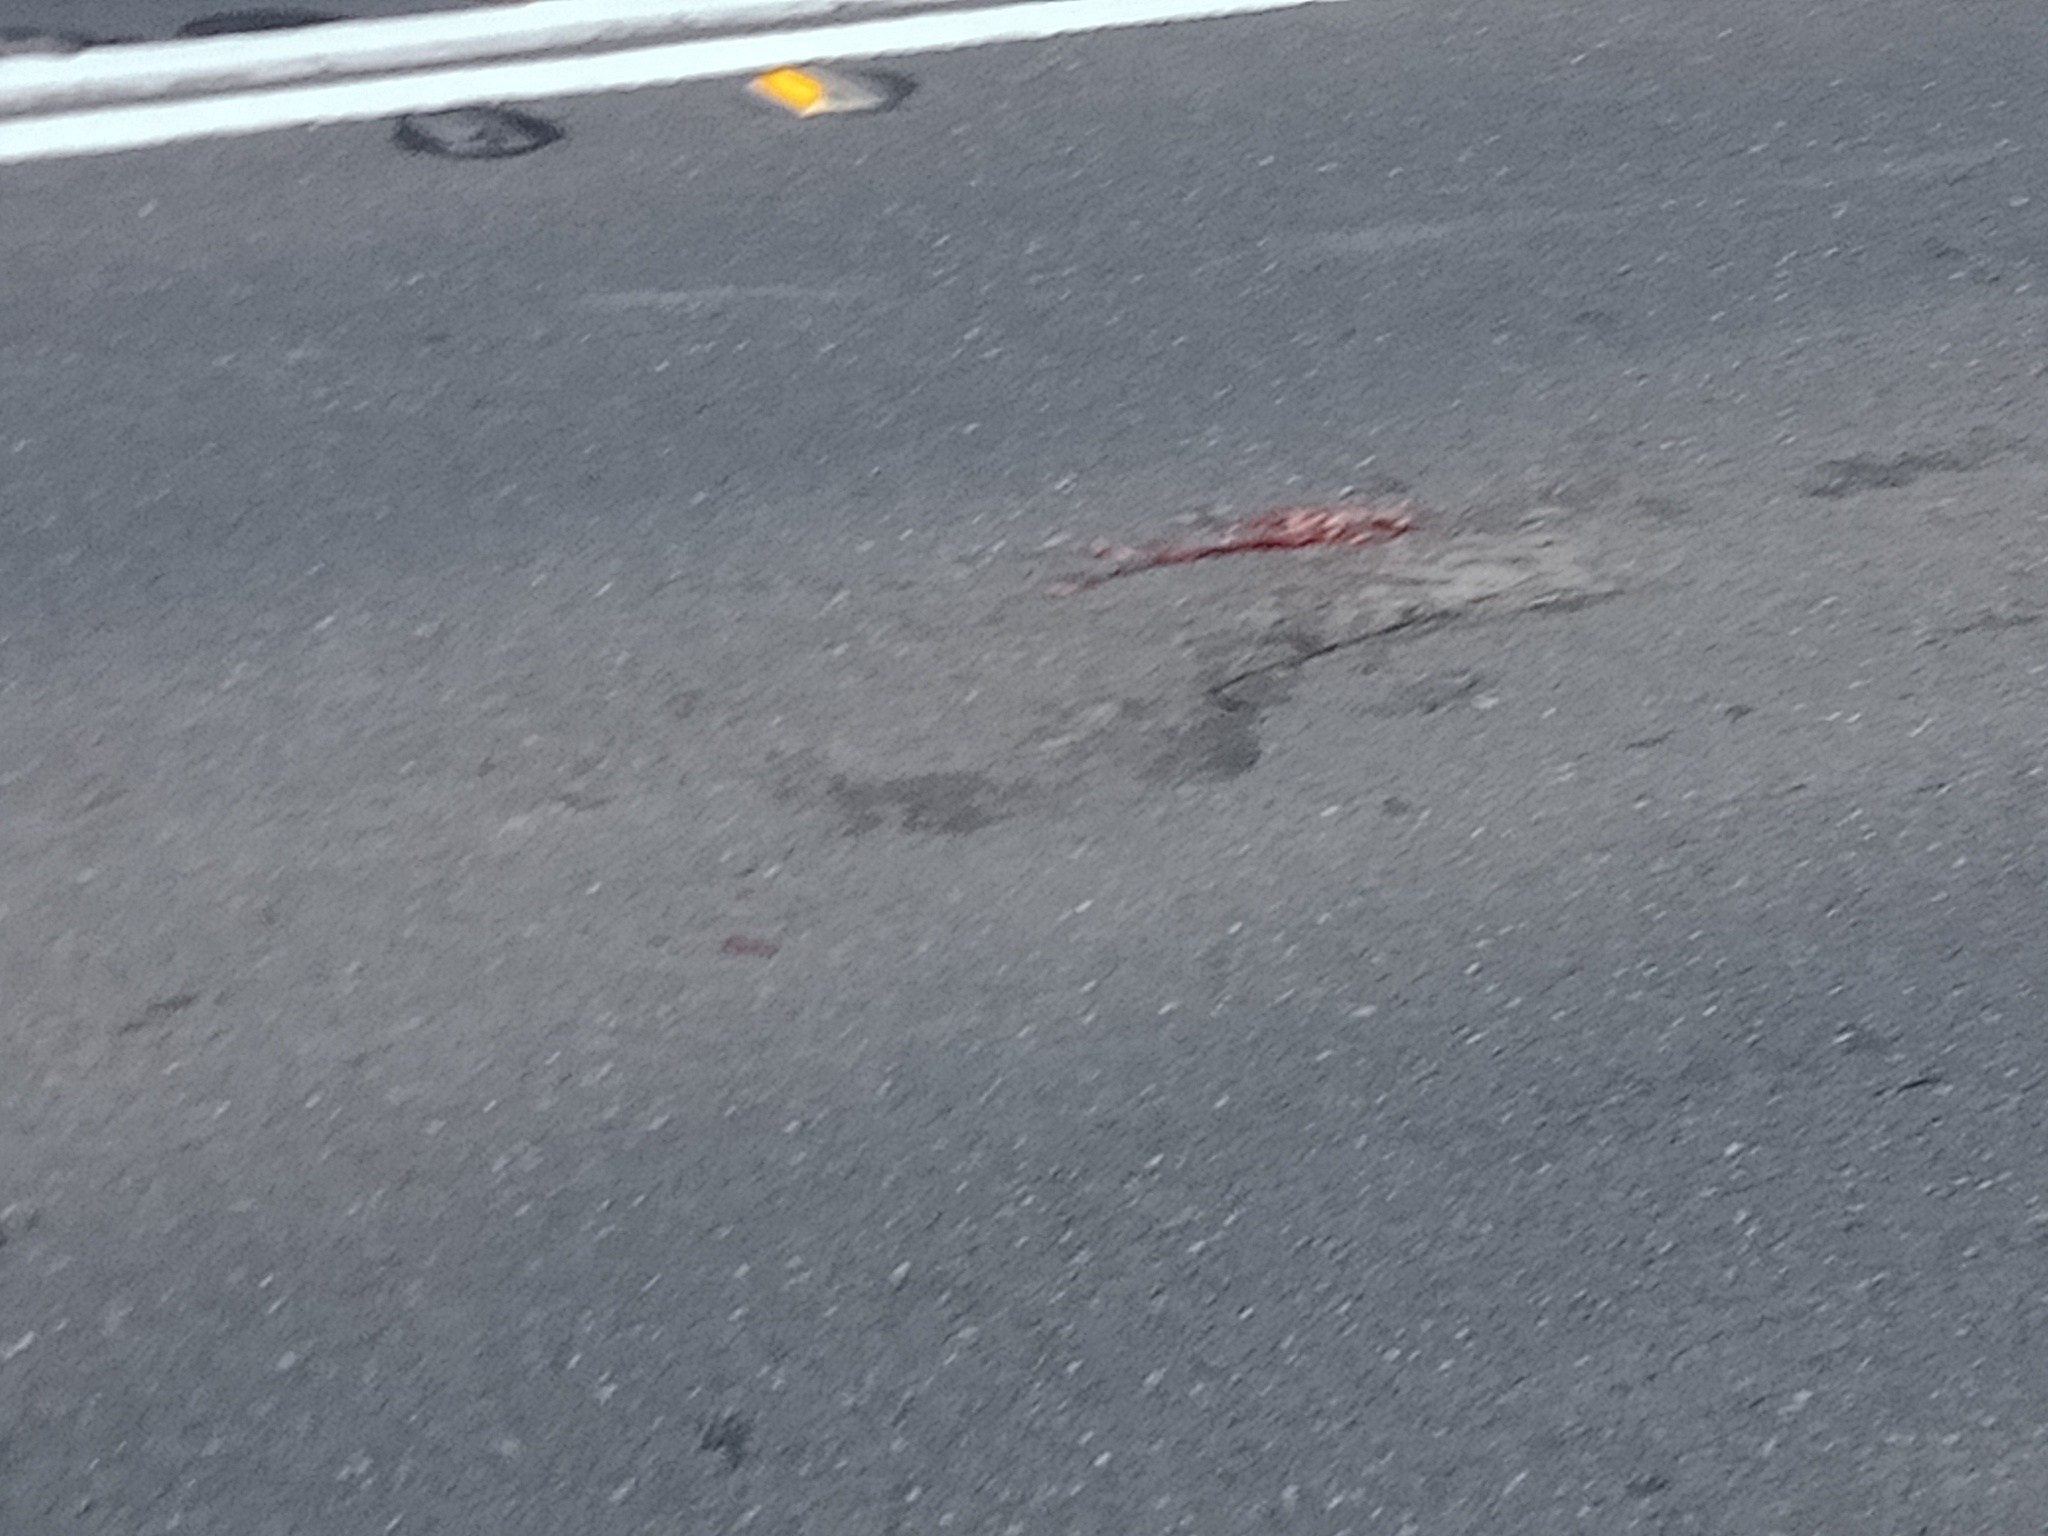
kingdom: Animalia
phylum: Chordata
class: Mammalia
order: Diprotodontia
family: Phalangeridae
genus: Trichosurus
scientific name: Trichosurus vulpecula
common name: Common brushtail
